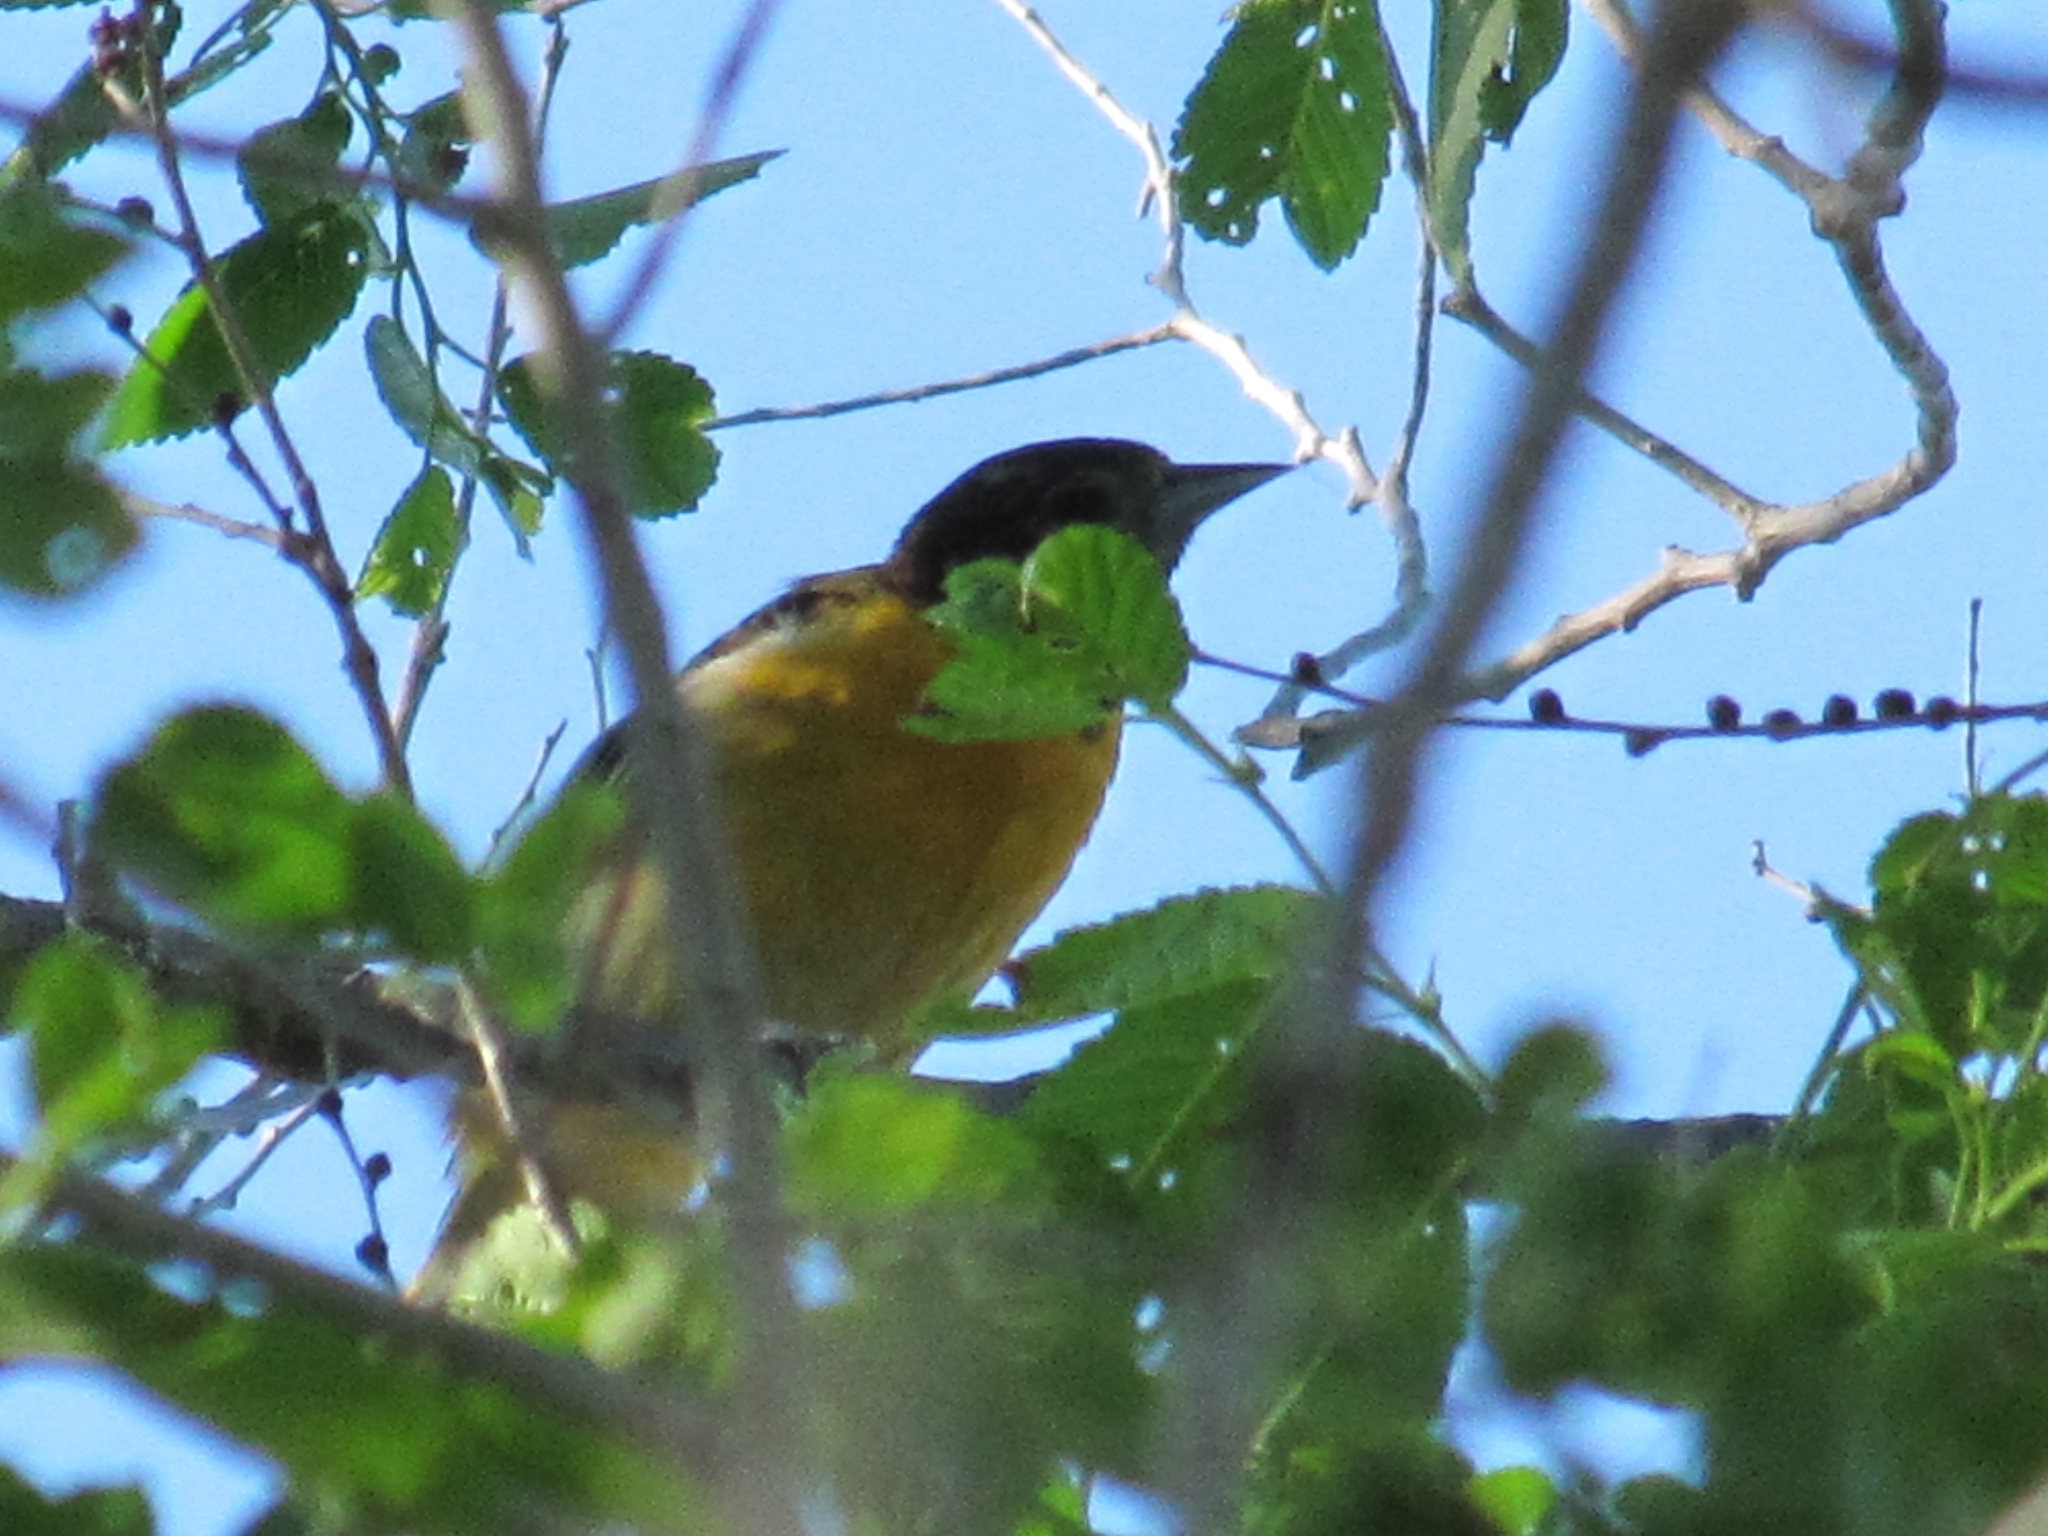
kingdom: Animalia
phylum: Chordata
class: Aves
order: Passeriformes
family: Icteridae
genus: Icterus
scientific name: Icterus galbula
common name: Baltimore oriole
